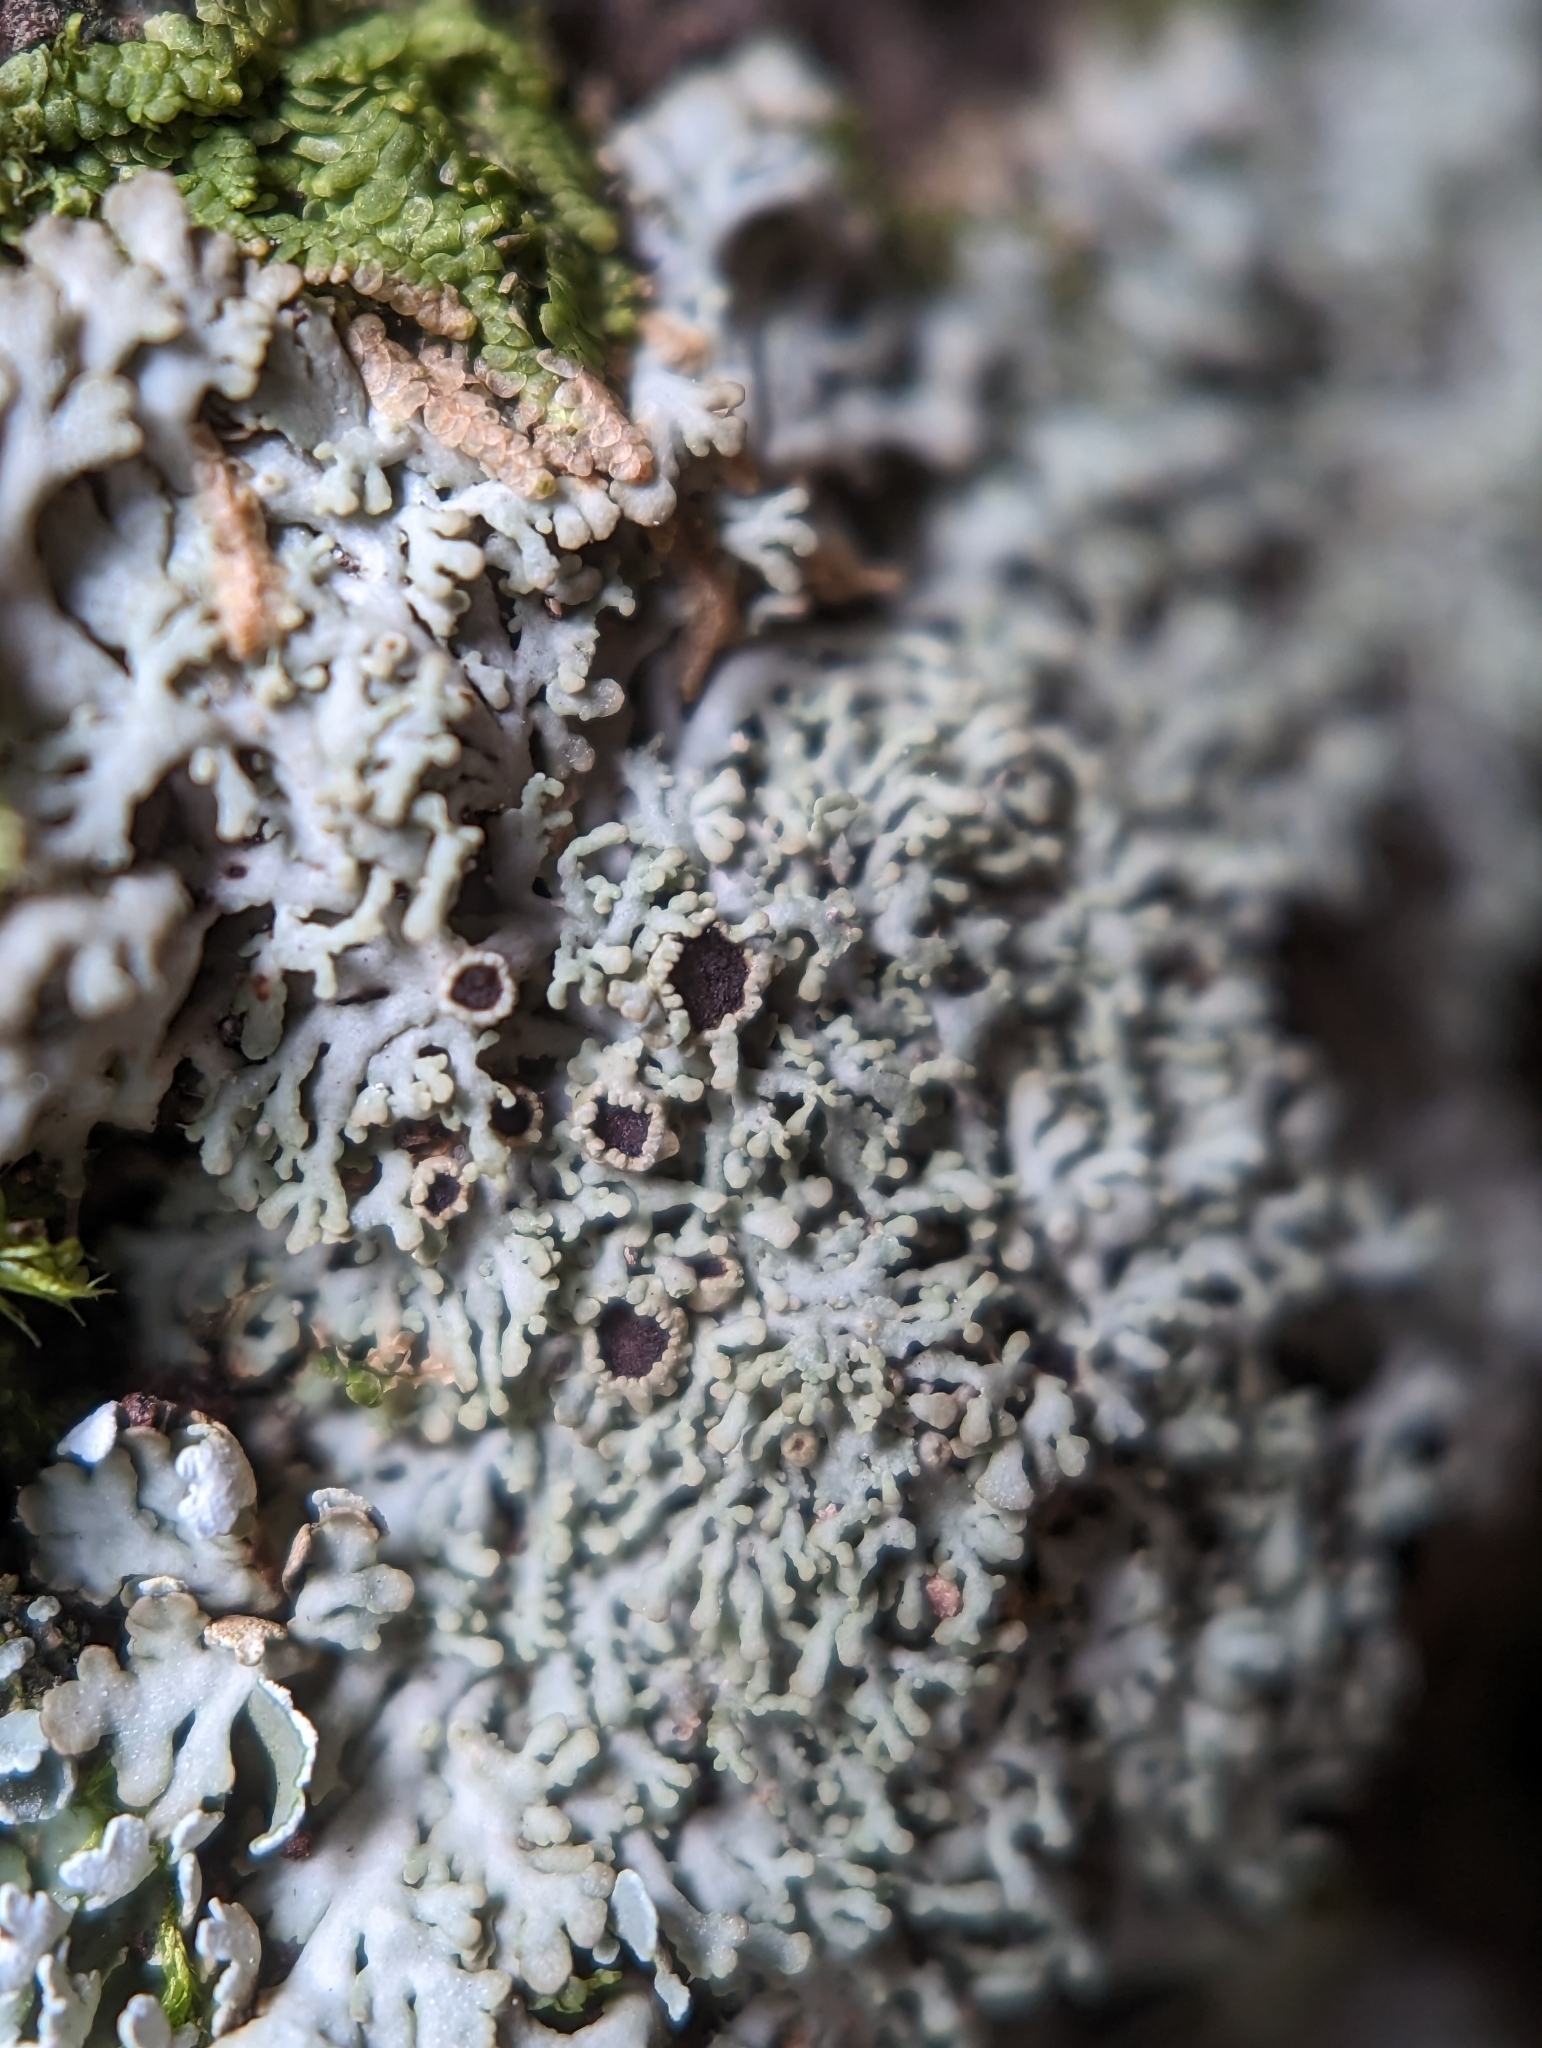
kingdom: Fungi
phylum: Ascomycota
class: Lecanoromycetes
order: Caliciales
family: Physciaceae
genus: Kurokawia
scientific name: Kurokawia palmulata
